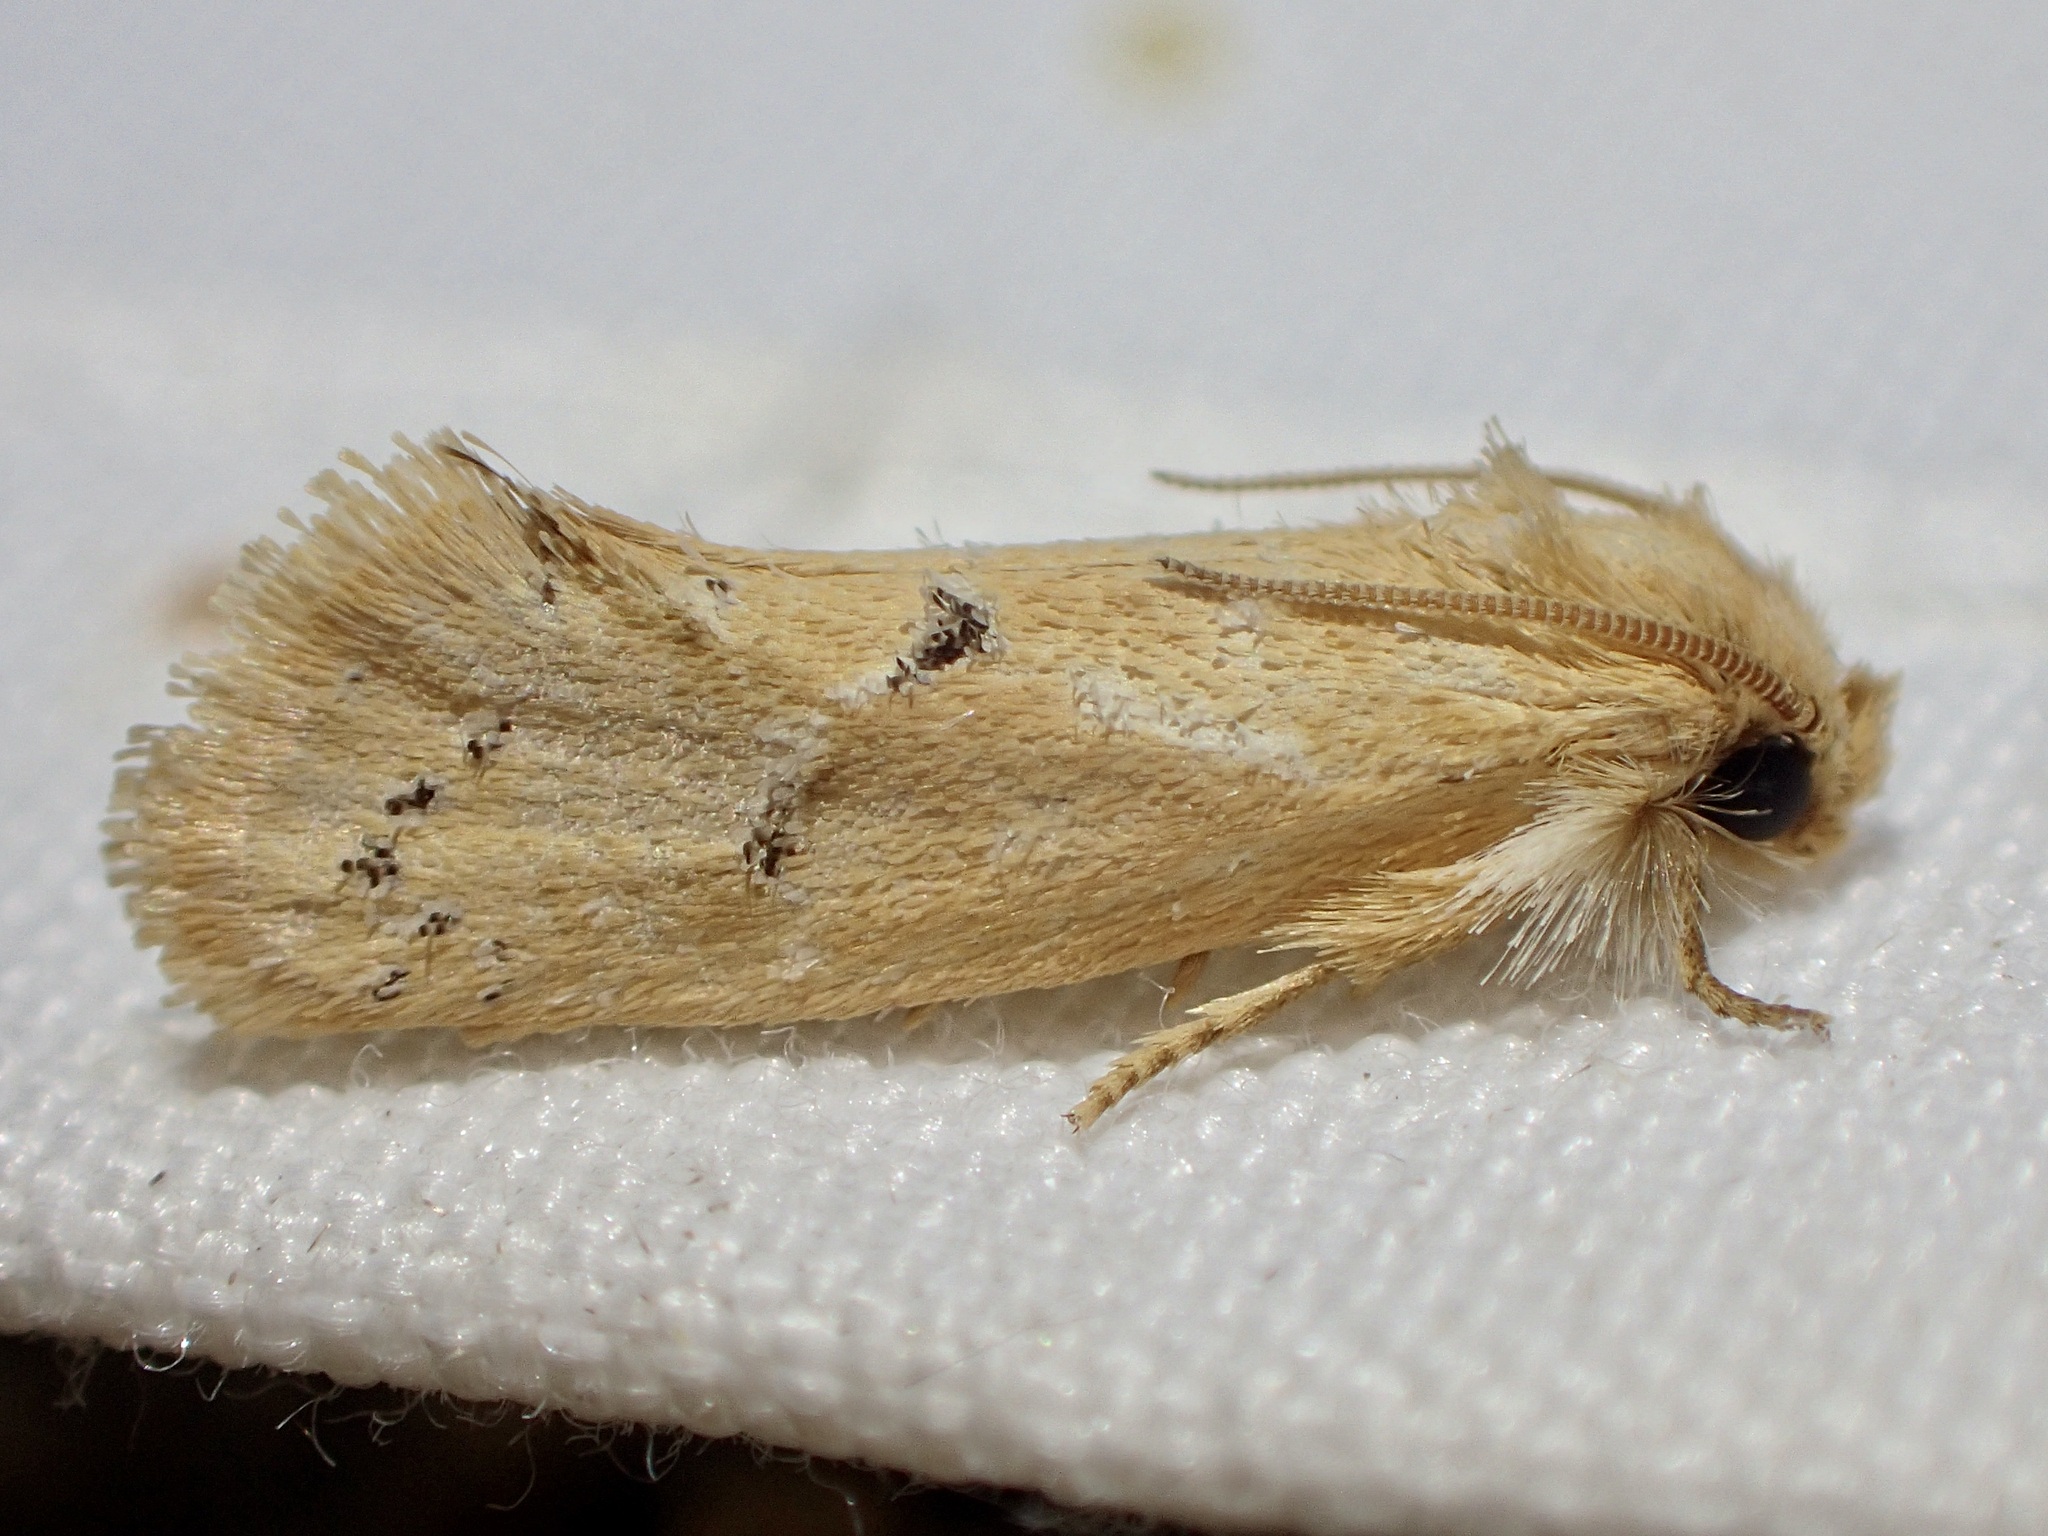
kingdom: Animalia
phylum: Arthropoda
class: Insecta
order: Lepidoptera
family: Tineidae
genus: Acrolophus
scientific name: Acrolophus laticapitana
